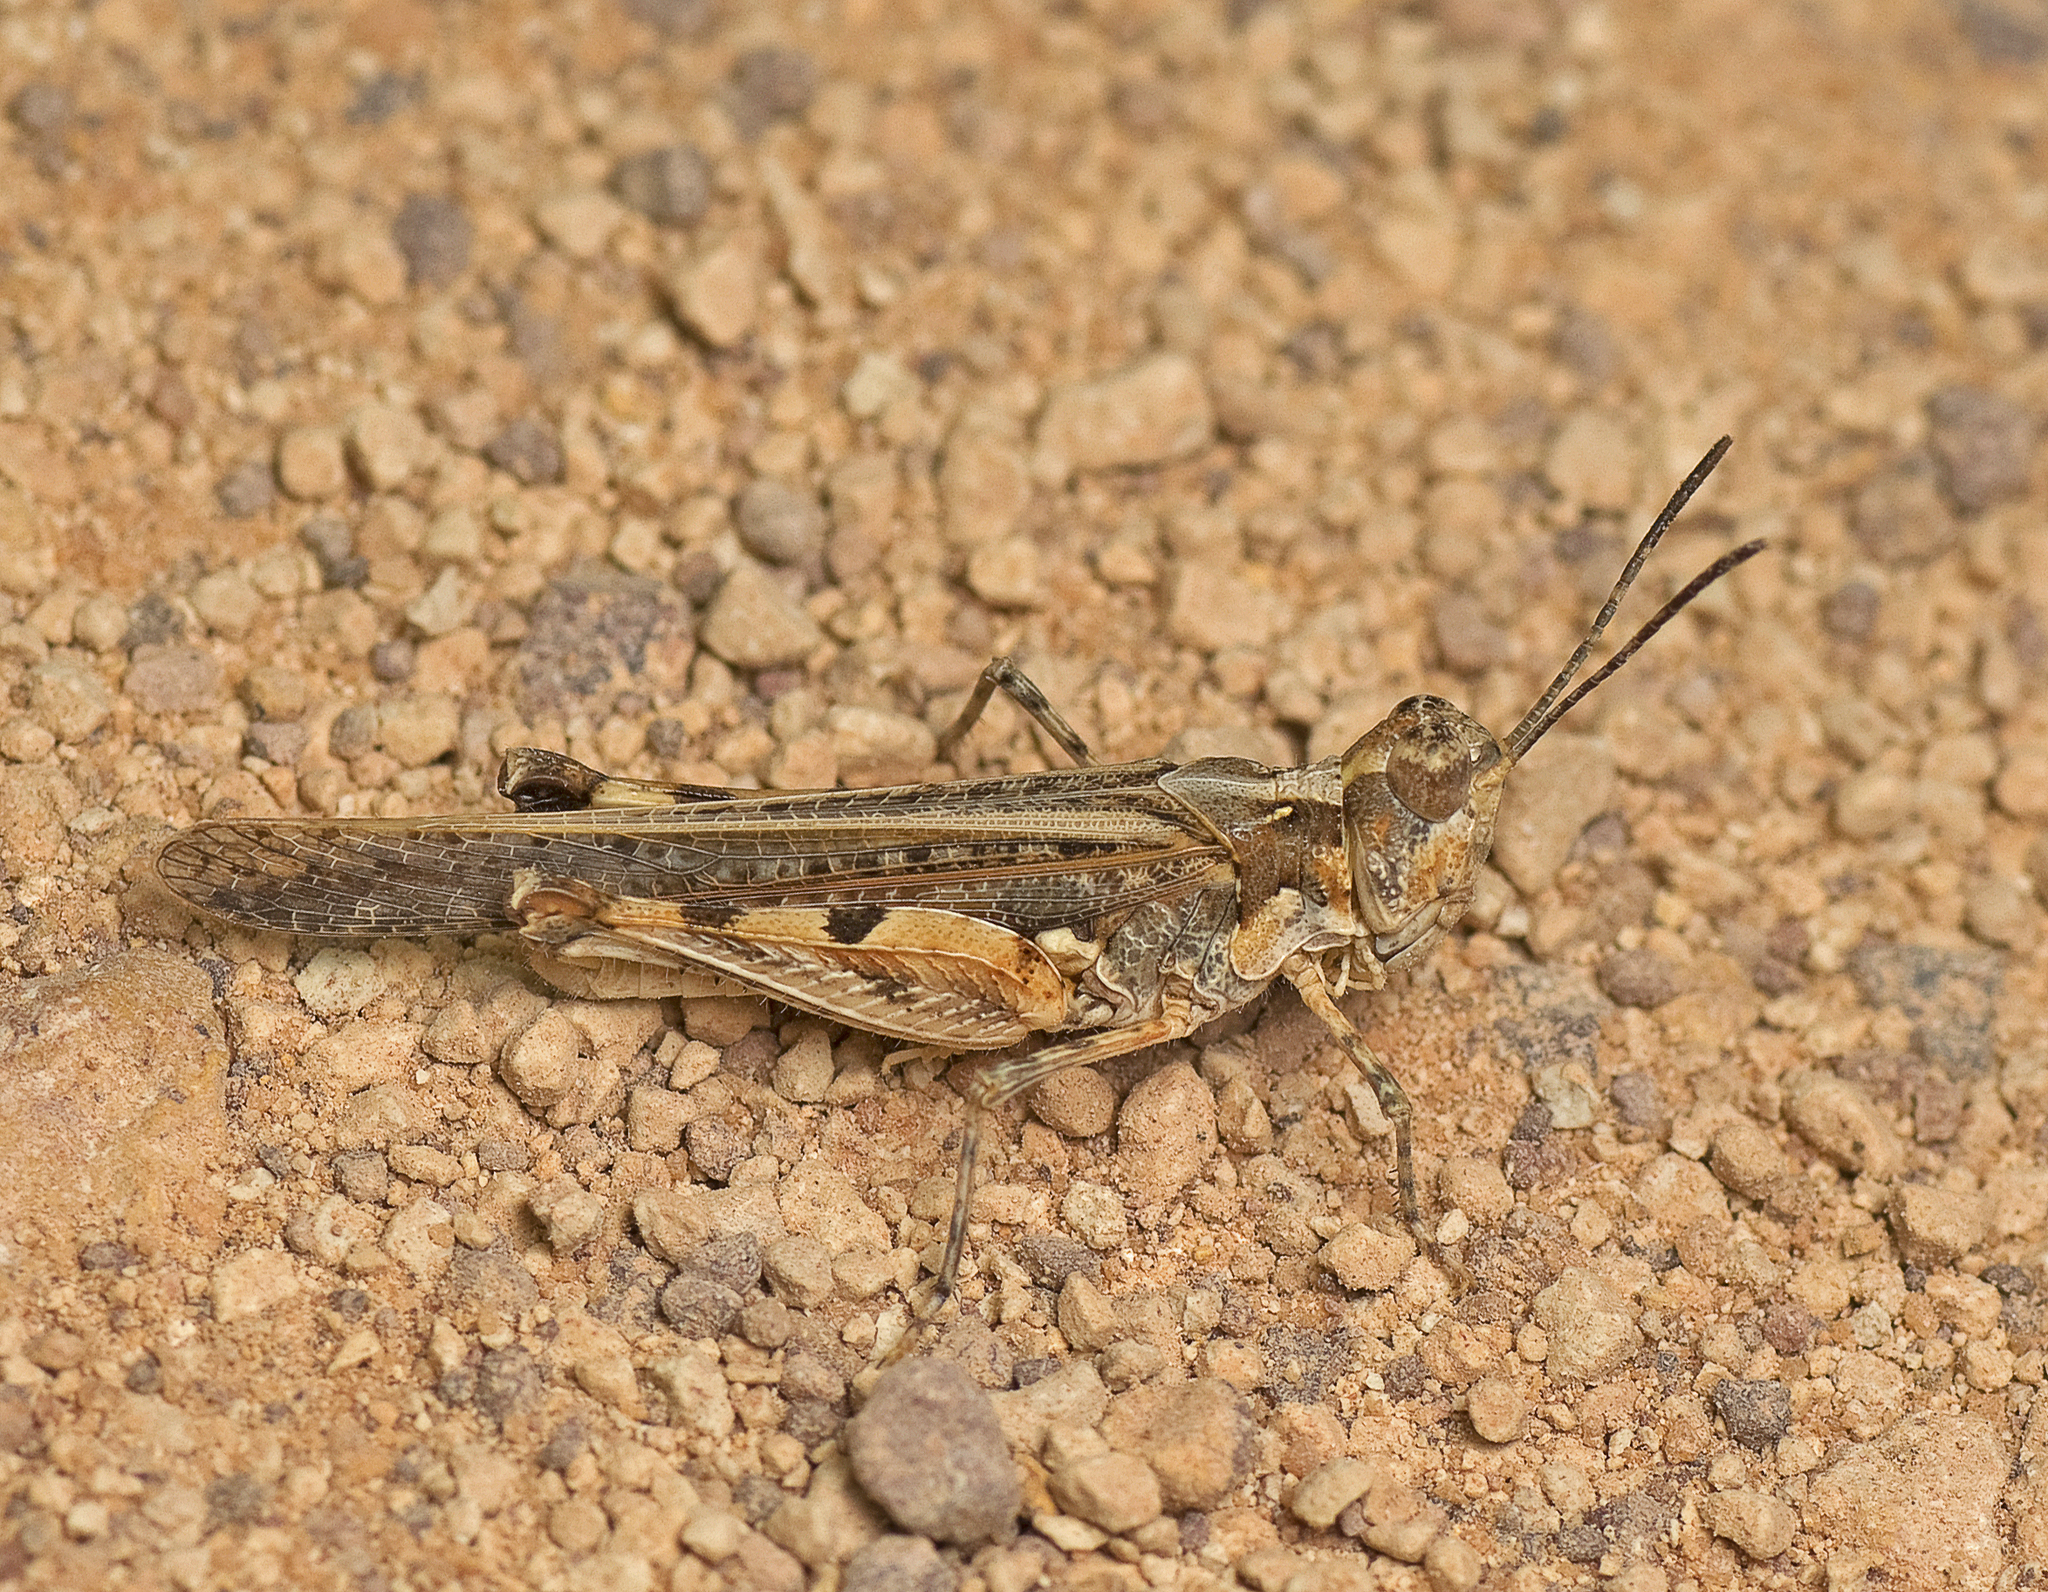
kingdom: Animalia
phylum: Arthropoda
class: Insecta
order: Orthoptera
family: Acrididae
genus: Pycnostictus
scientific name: Pycnostictus seriatus
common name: Common bandwing
